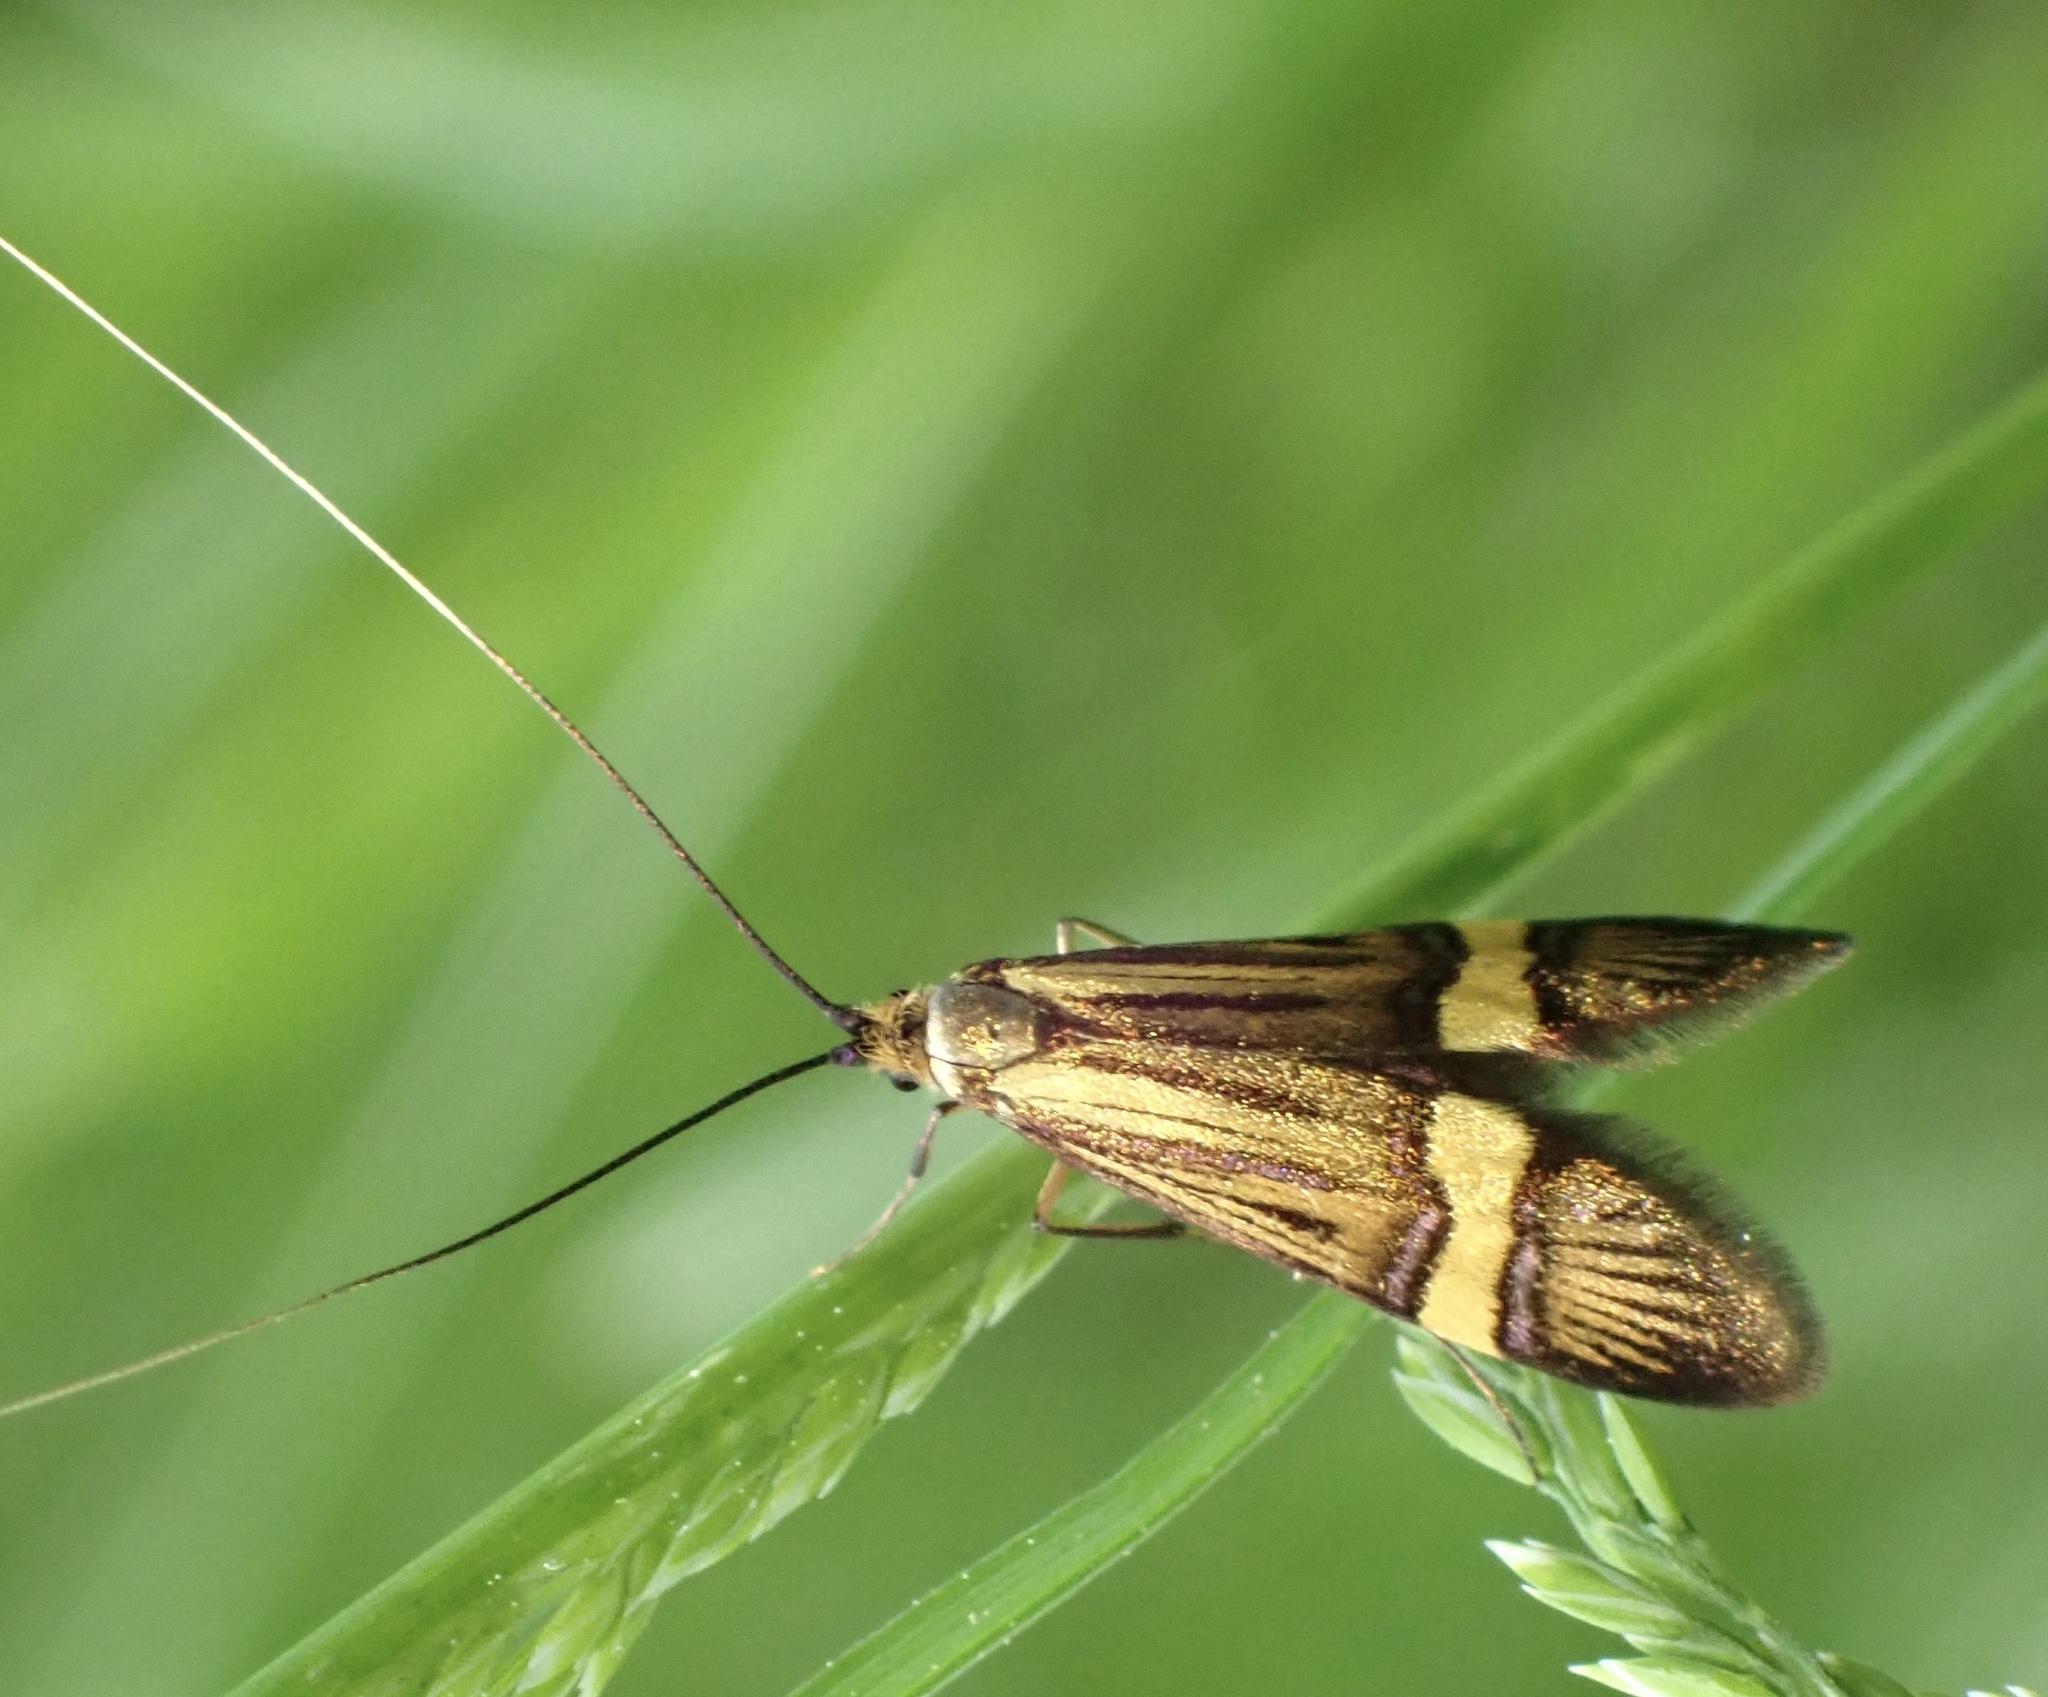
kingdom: Animalia
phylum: Arthropoda
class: Insecta
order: Lepidoptera
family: Adelidae
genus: Nemophora
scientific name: Nemophora degeerella
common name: Yellow-barred long-horn
